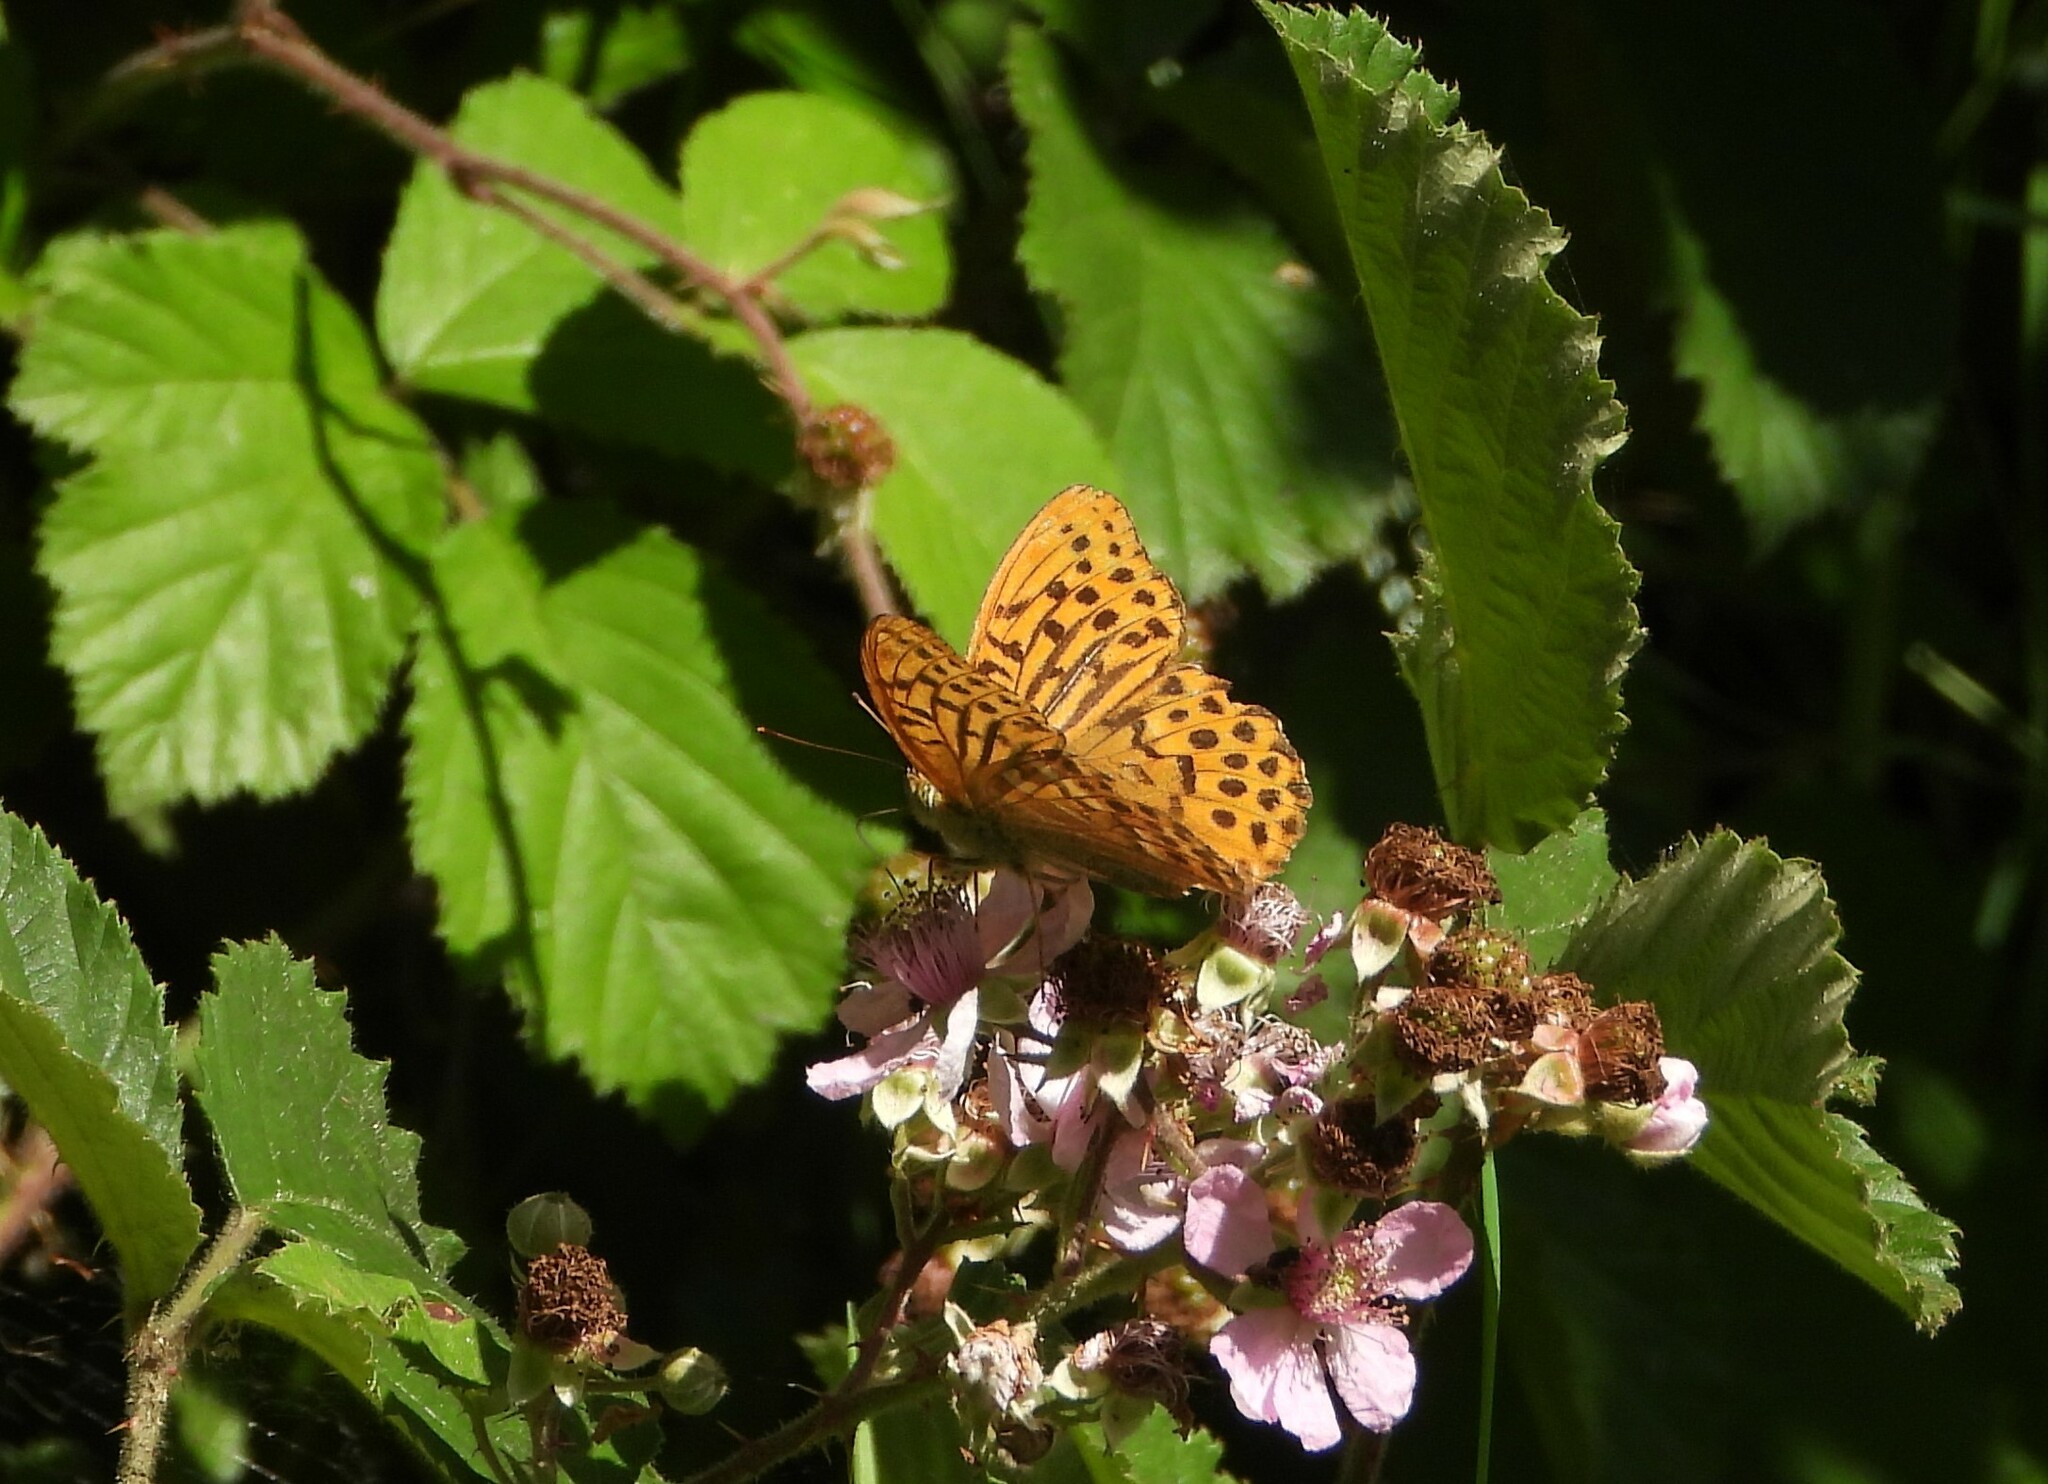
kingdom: Animalia
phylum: Arthropoda
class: Insecta
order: Lepidoptera
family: Nymphalidae
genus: Argynnis
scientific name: Argynnis paphia
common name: Silver-washed fritillary
